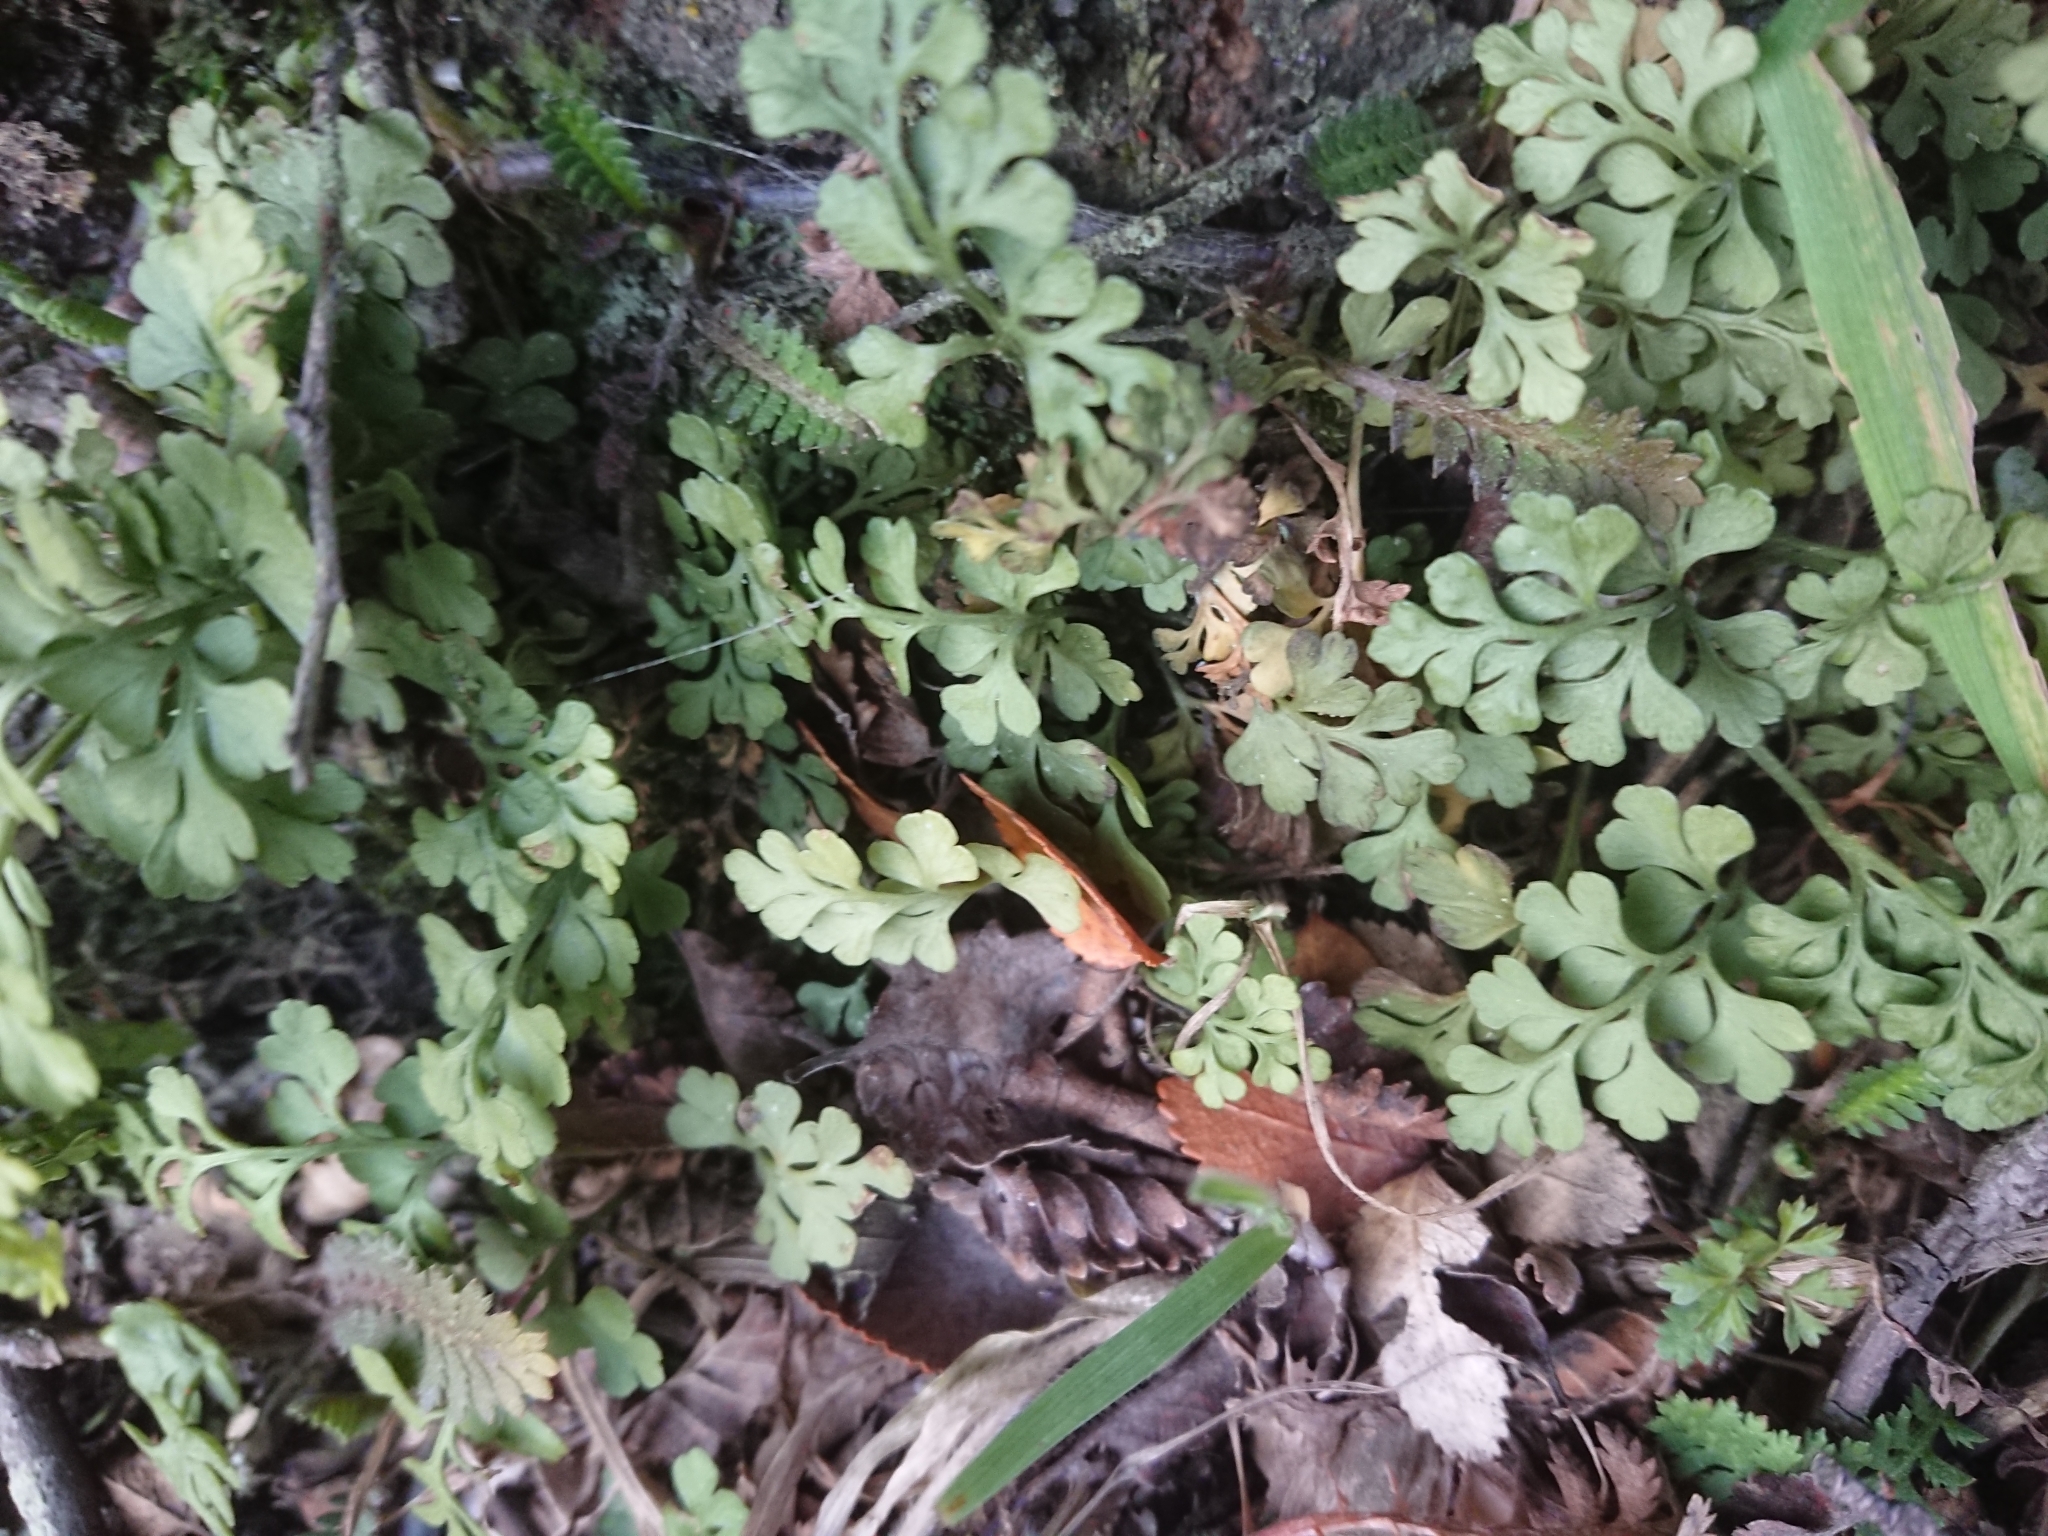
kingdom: Plantae
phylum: Tracheophyta
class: Polypodiopsida
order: Polypodiales
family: Aspleniaceae
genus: Asplenium
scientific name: Asplenium dareoides
